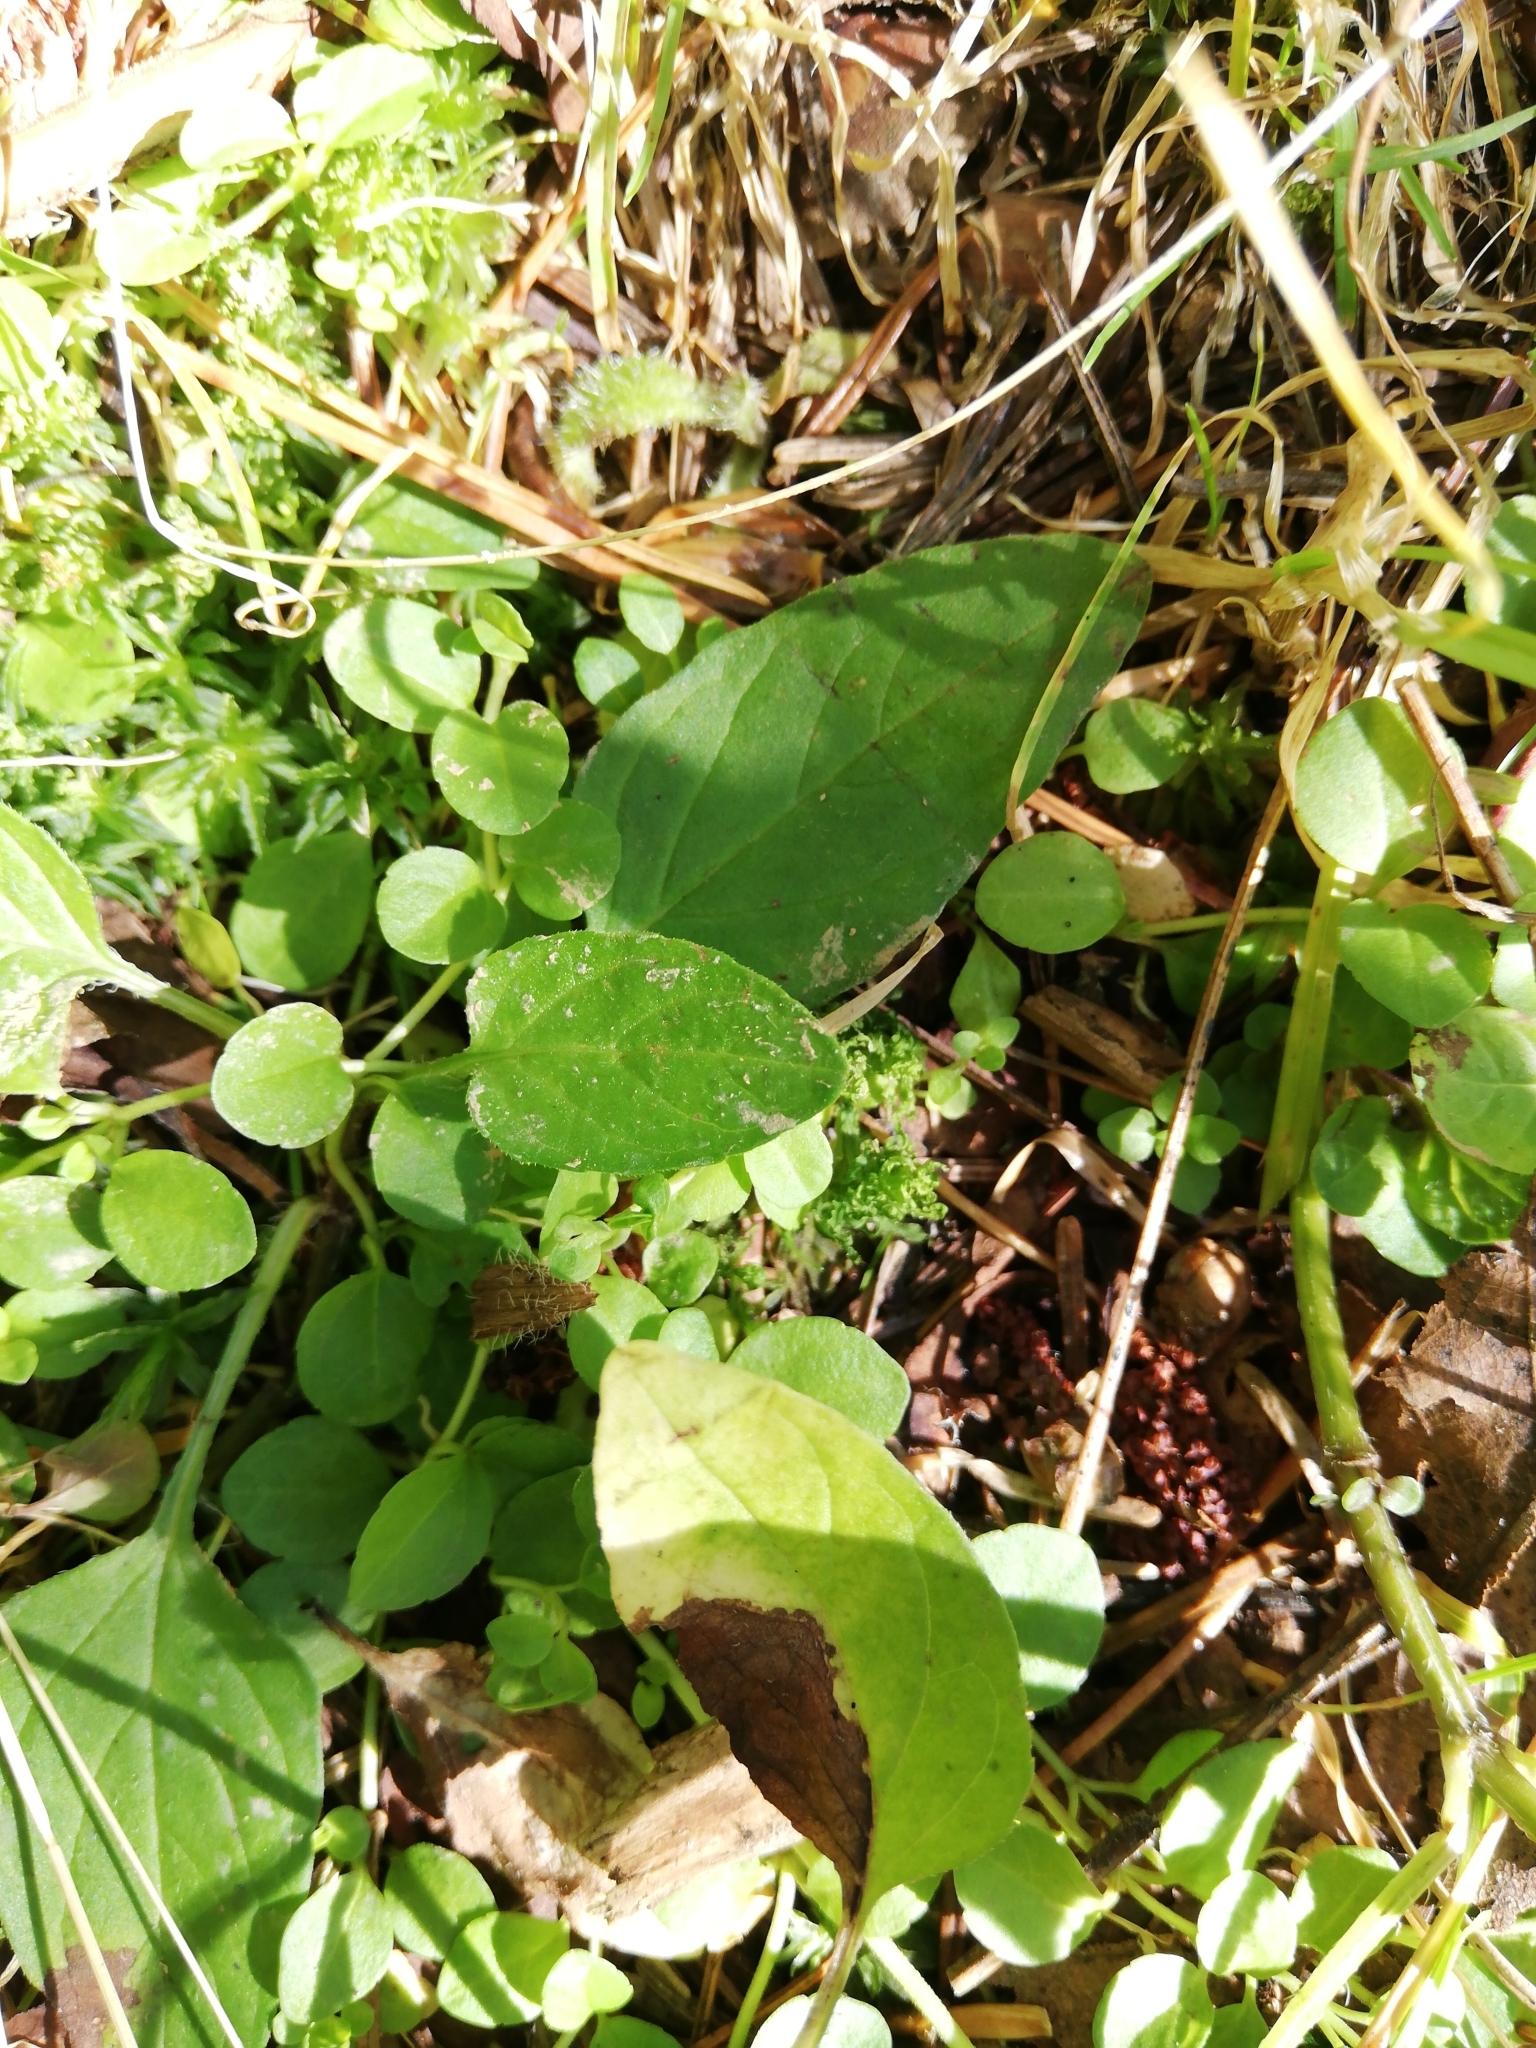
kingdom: Plantae
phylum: Tracheophyta
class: Magnoliopsida
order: Lamiales
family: Lamiaceae
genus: Prunella
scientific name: Prunella vulgaris
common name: Heal-all
